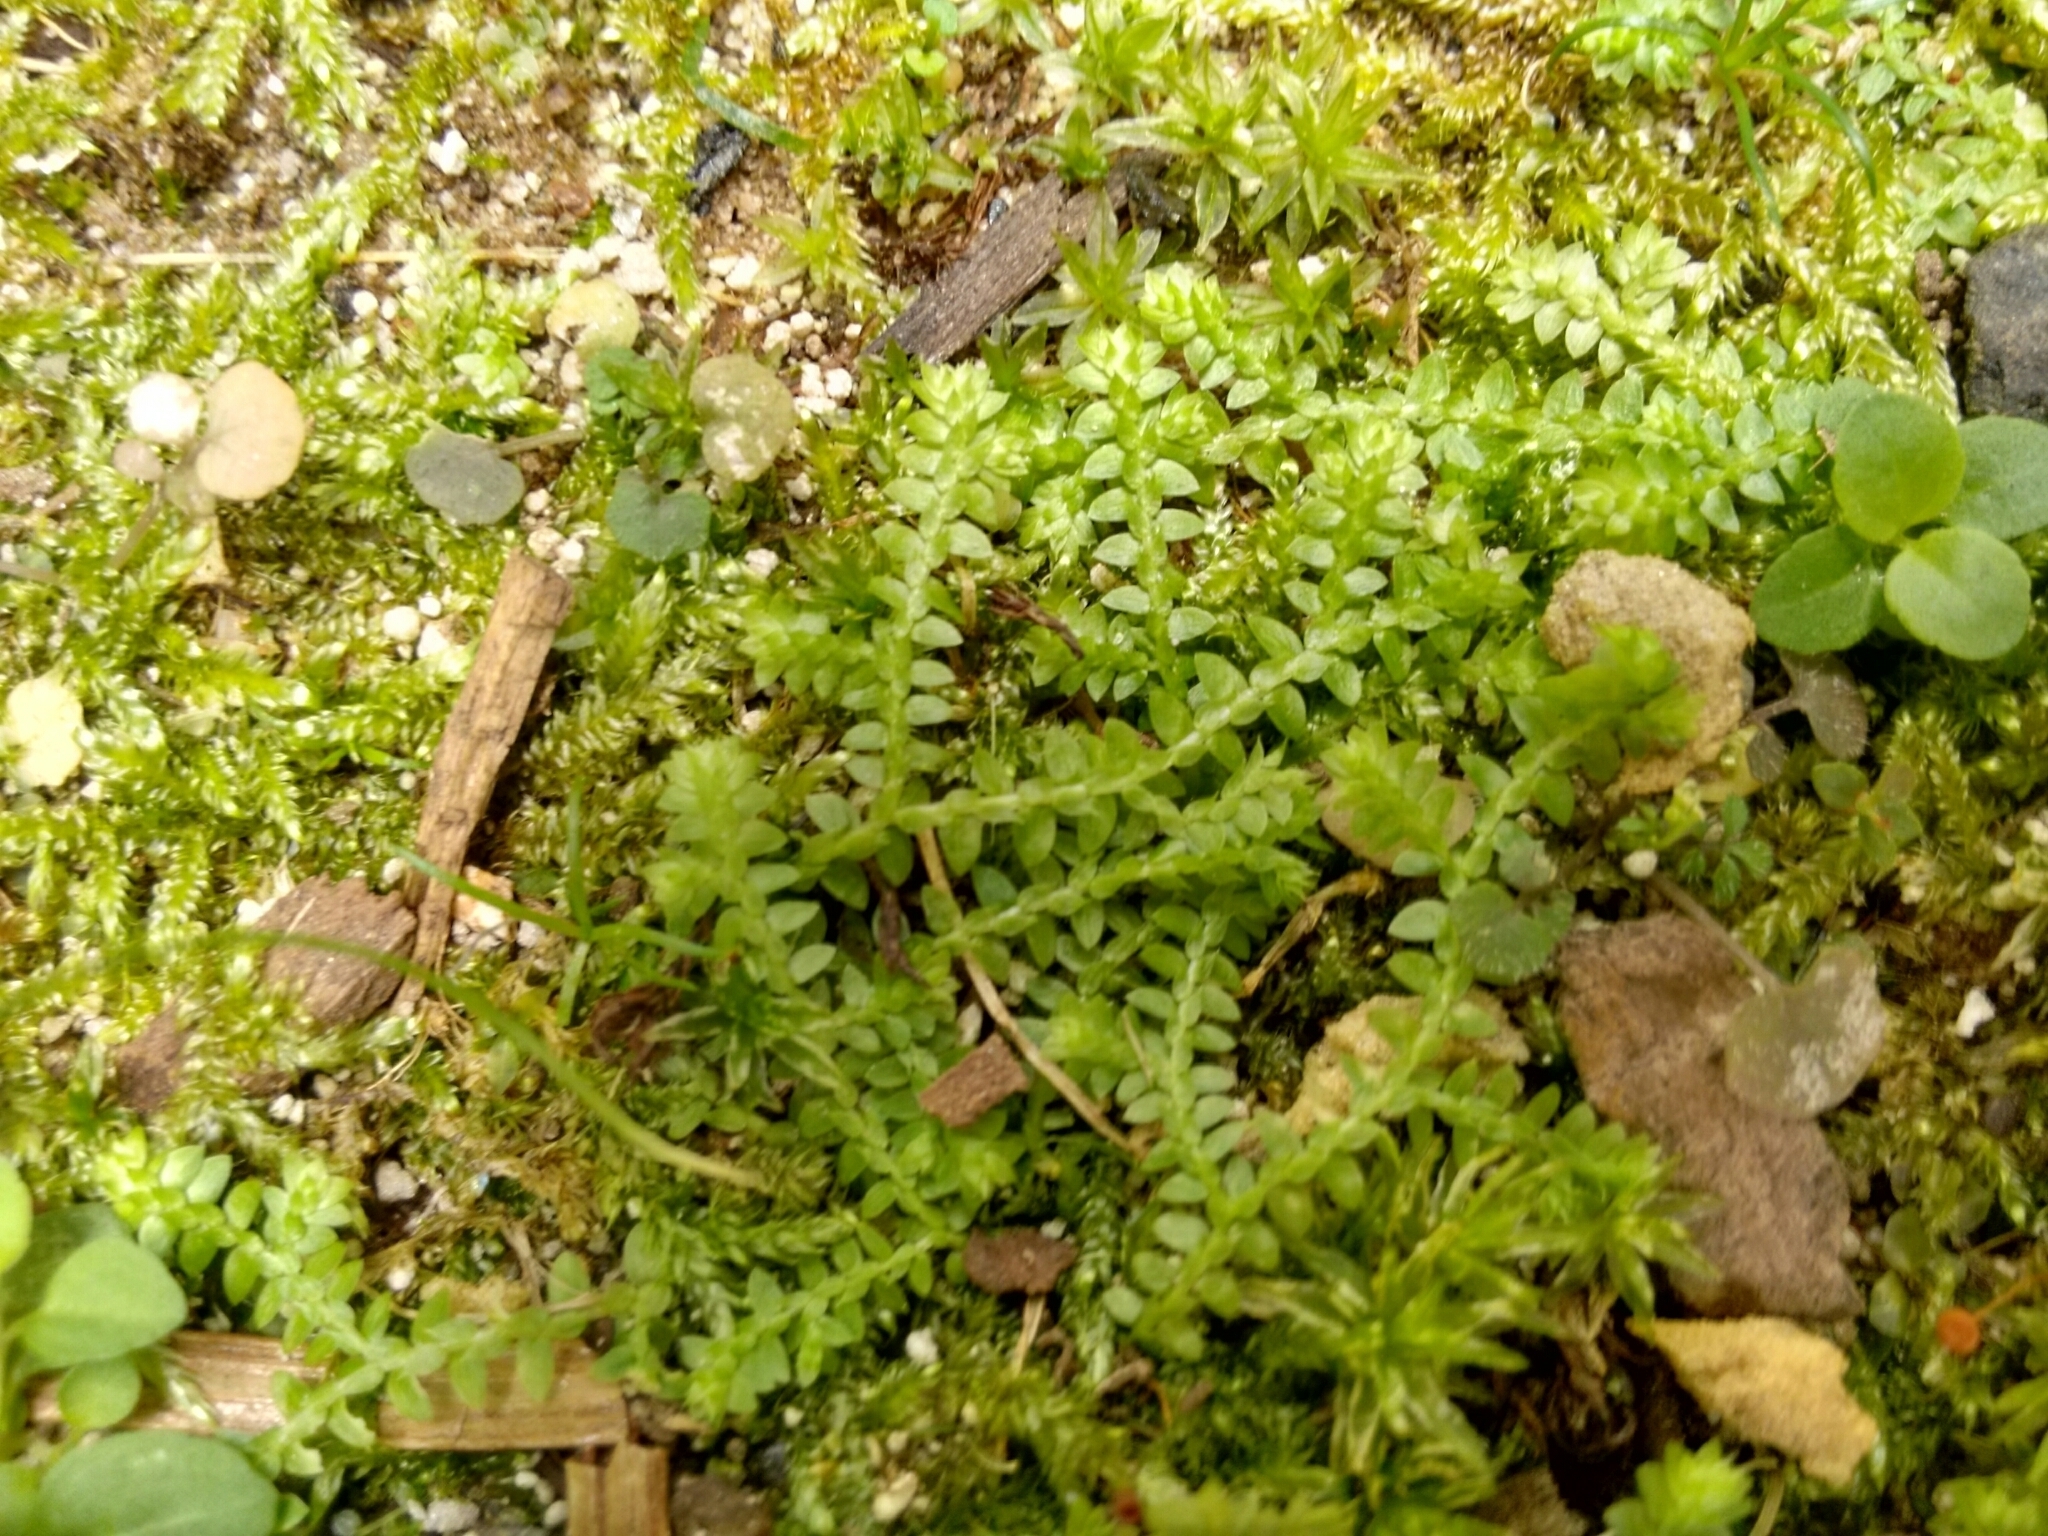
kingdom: Plantae
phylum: Tracheophyta
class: Lycopodiopsida
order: Selaginellales
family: Selaginellaceae
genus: Selaginella
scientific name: Selaginella apoda
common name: Creeping spikemoss
